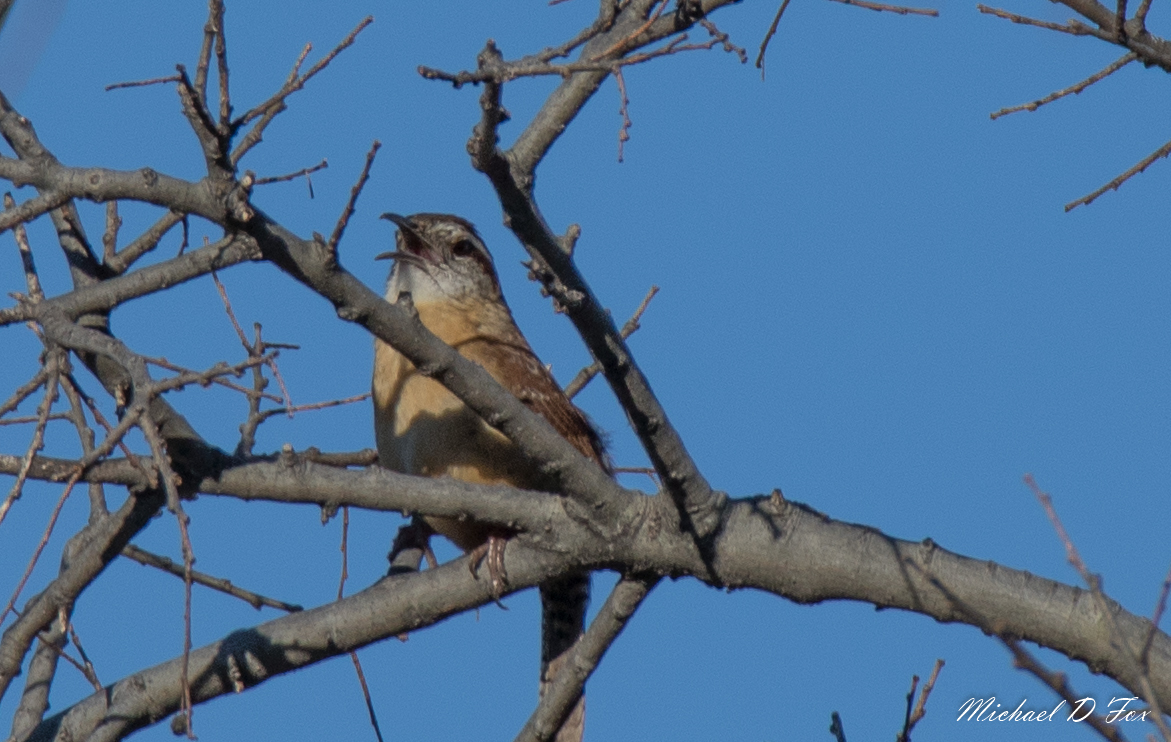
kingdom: Animalia
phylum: Chordata
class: Aves
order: Passeriformes
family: Troglodytidae
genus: Thryothorus
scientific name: Thryothorus ludovicianus
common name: Carolina wren
